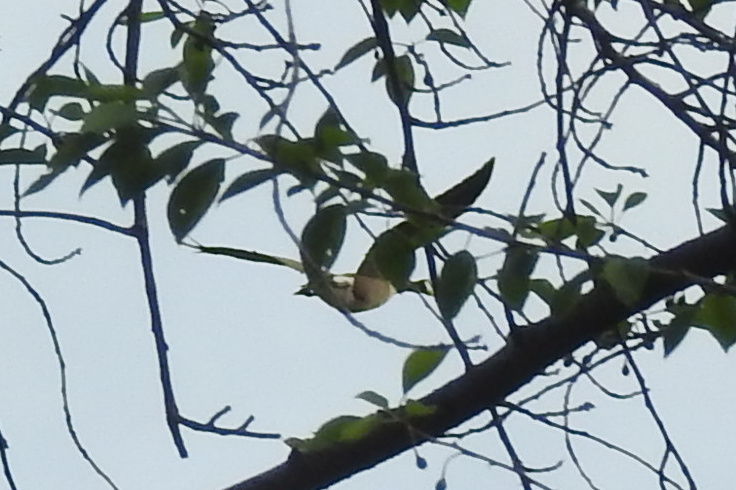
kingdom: Animalia
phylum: Chordata
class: Aves
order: Anseriformes
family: Anatidae
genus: Branta
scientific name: Branta canadensis
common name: Canada goose
